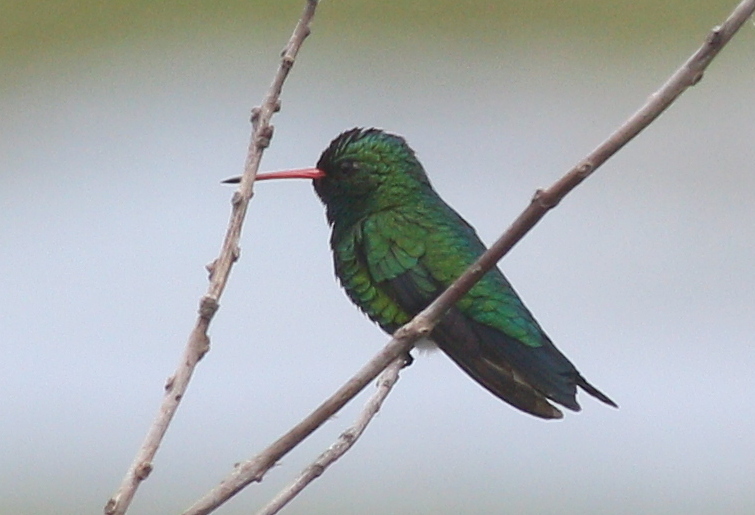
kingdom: Animalia
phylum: Chordata
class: Aves
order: Apodiformes
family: Trochilidae
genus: Chlorostilbon
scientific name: Chlorostilbon lucidus
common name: Glittering-bellied emerald
